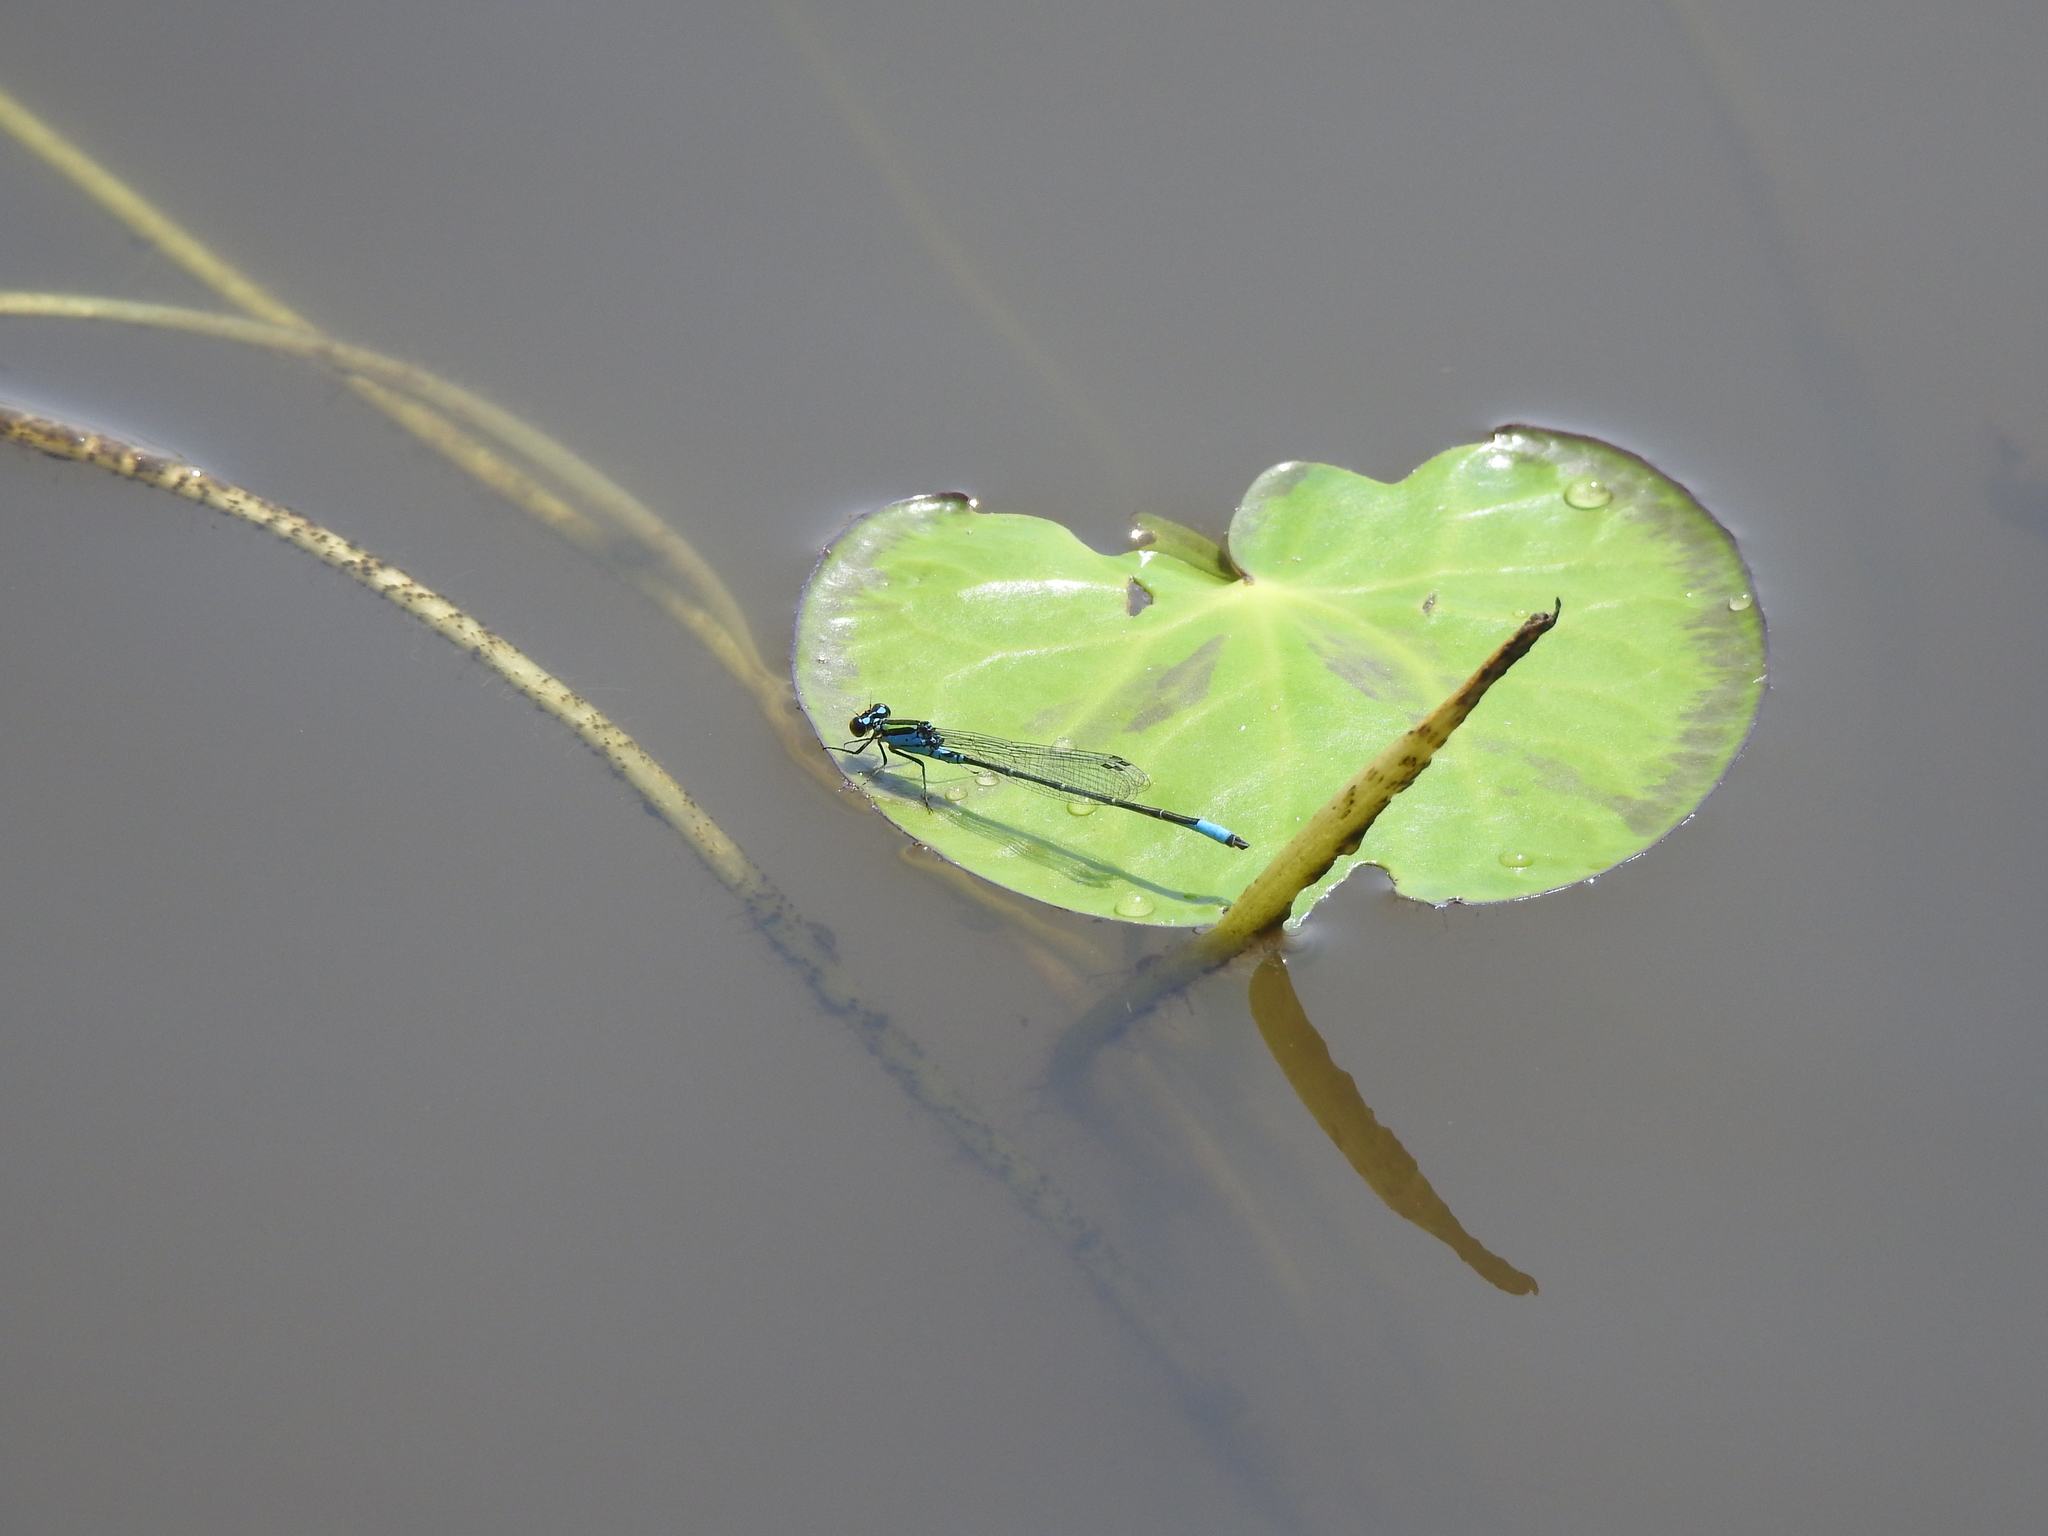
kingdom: Animalia
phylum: Arthropoda
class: Insecta
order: Odonata
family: Coenagrionidae
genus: Neoerythromma
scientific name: Neoerythromma cultellatum
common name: Caribbean yellowface
